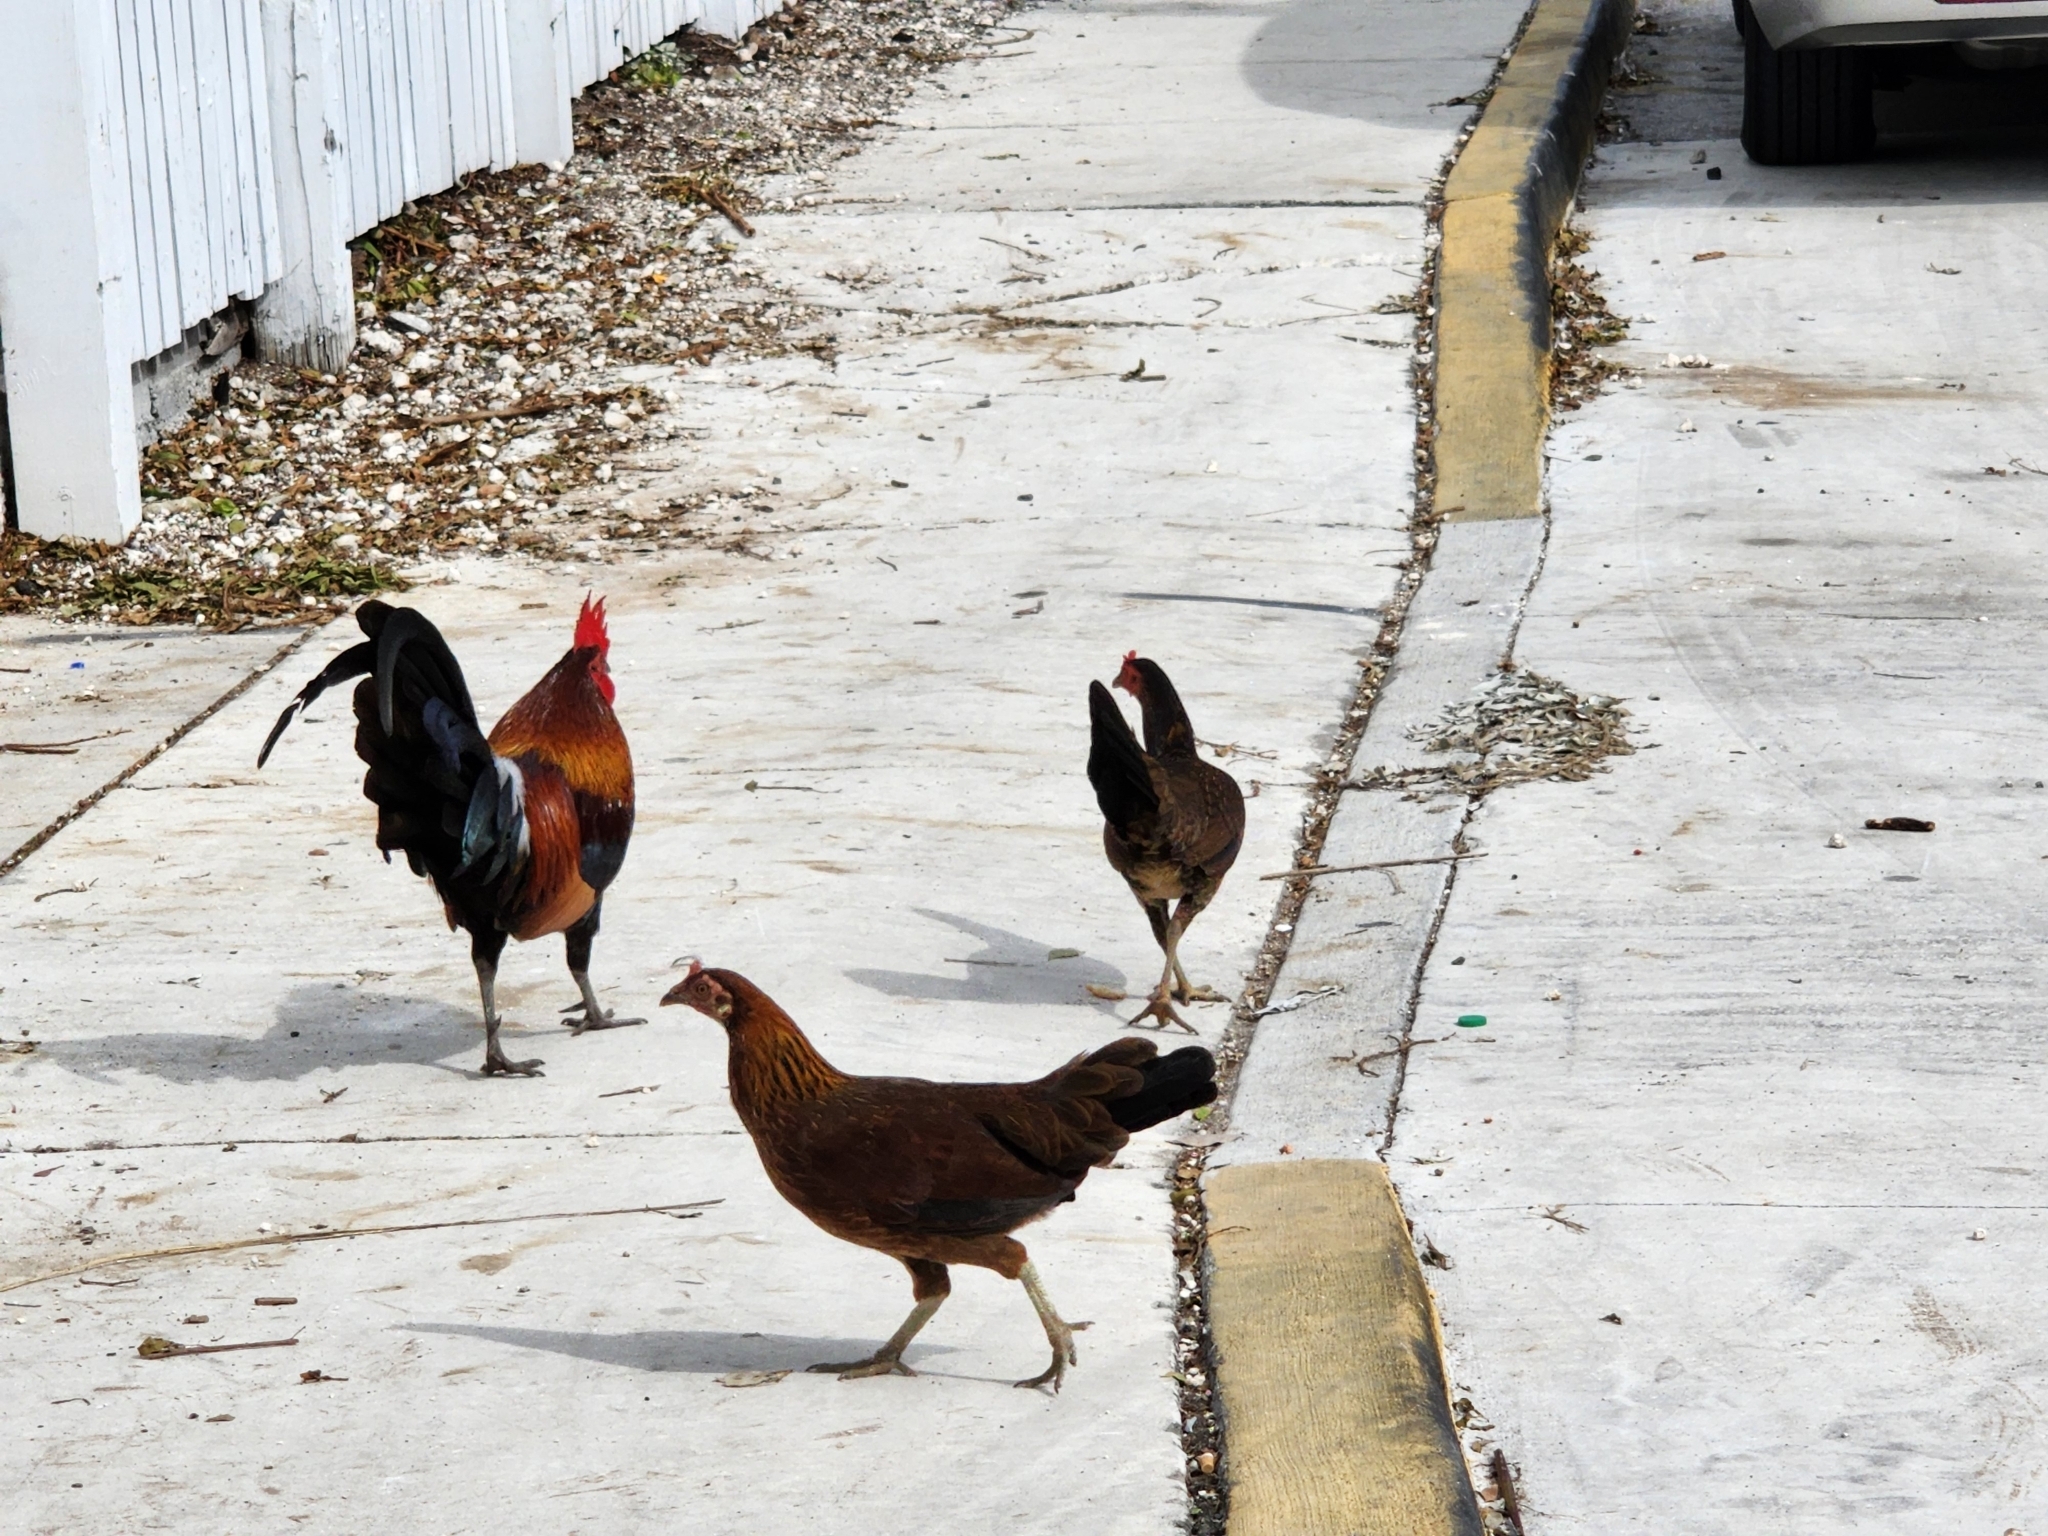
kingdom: Animalia
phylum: Chordata
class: Aves
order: Galliformes
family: Phasianidae
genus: Gallus
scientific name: Gallus gallus
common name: Red junglefowl
